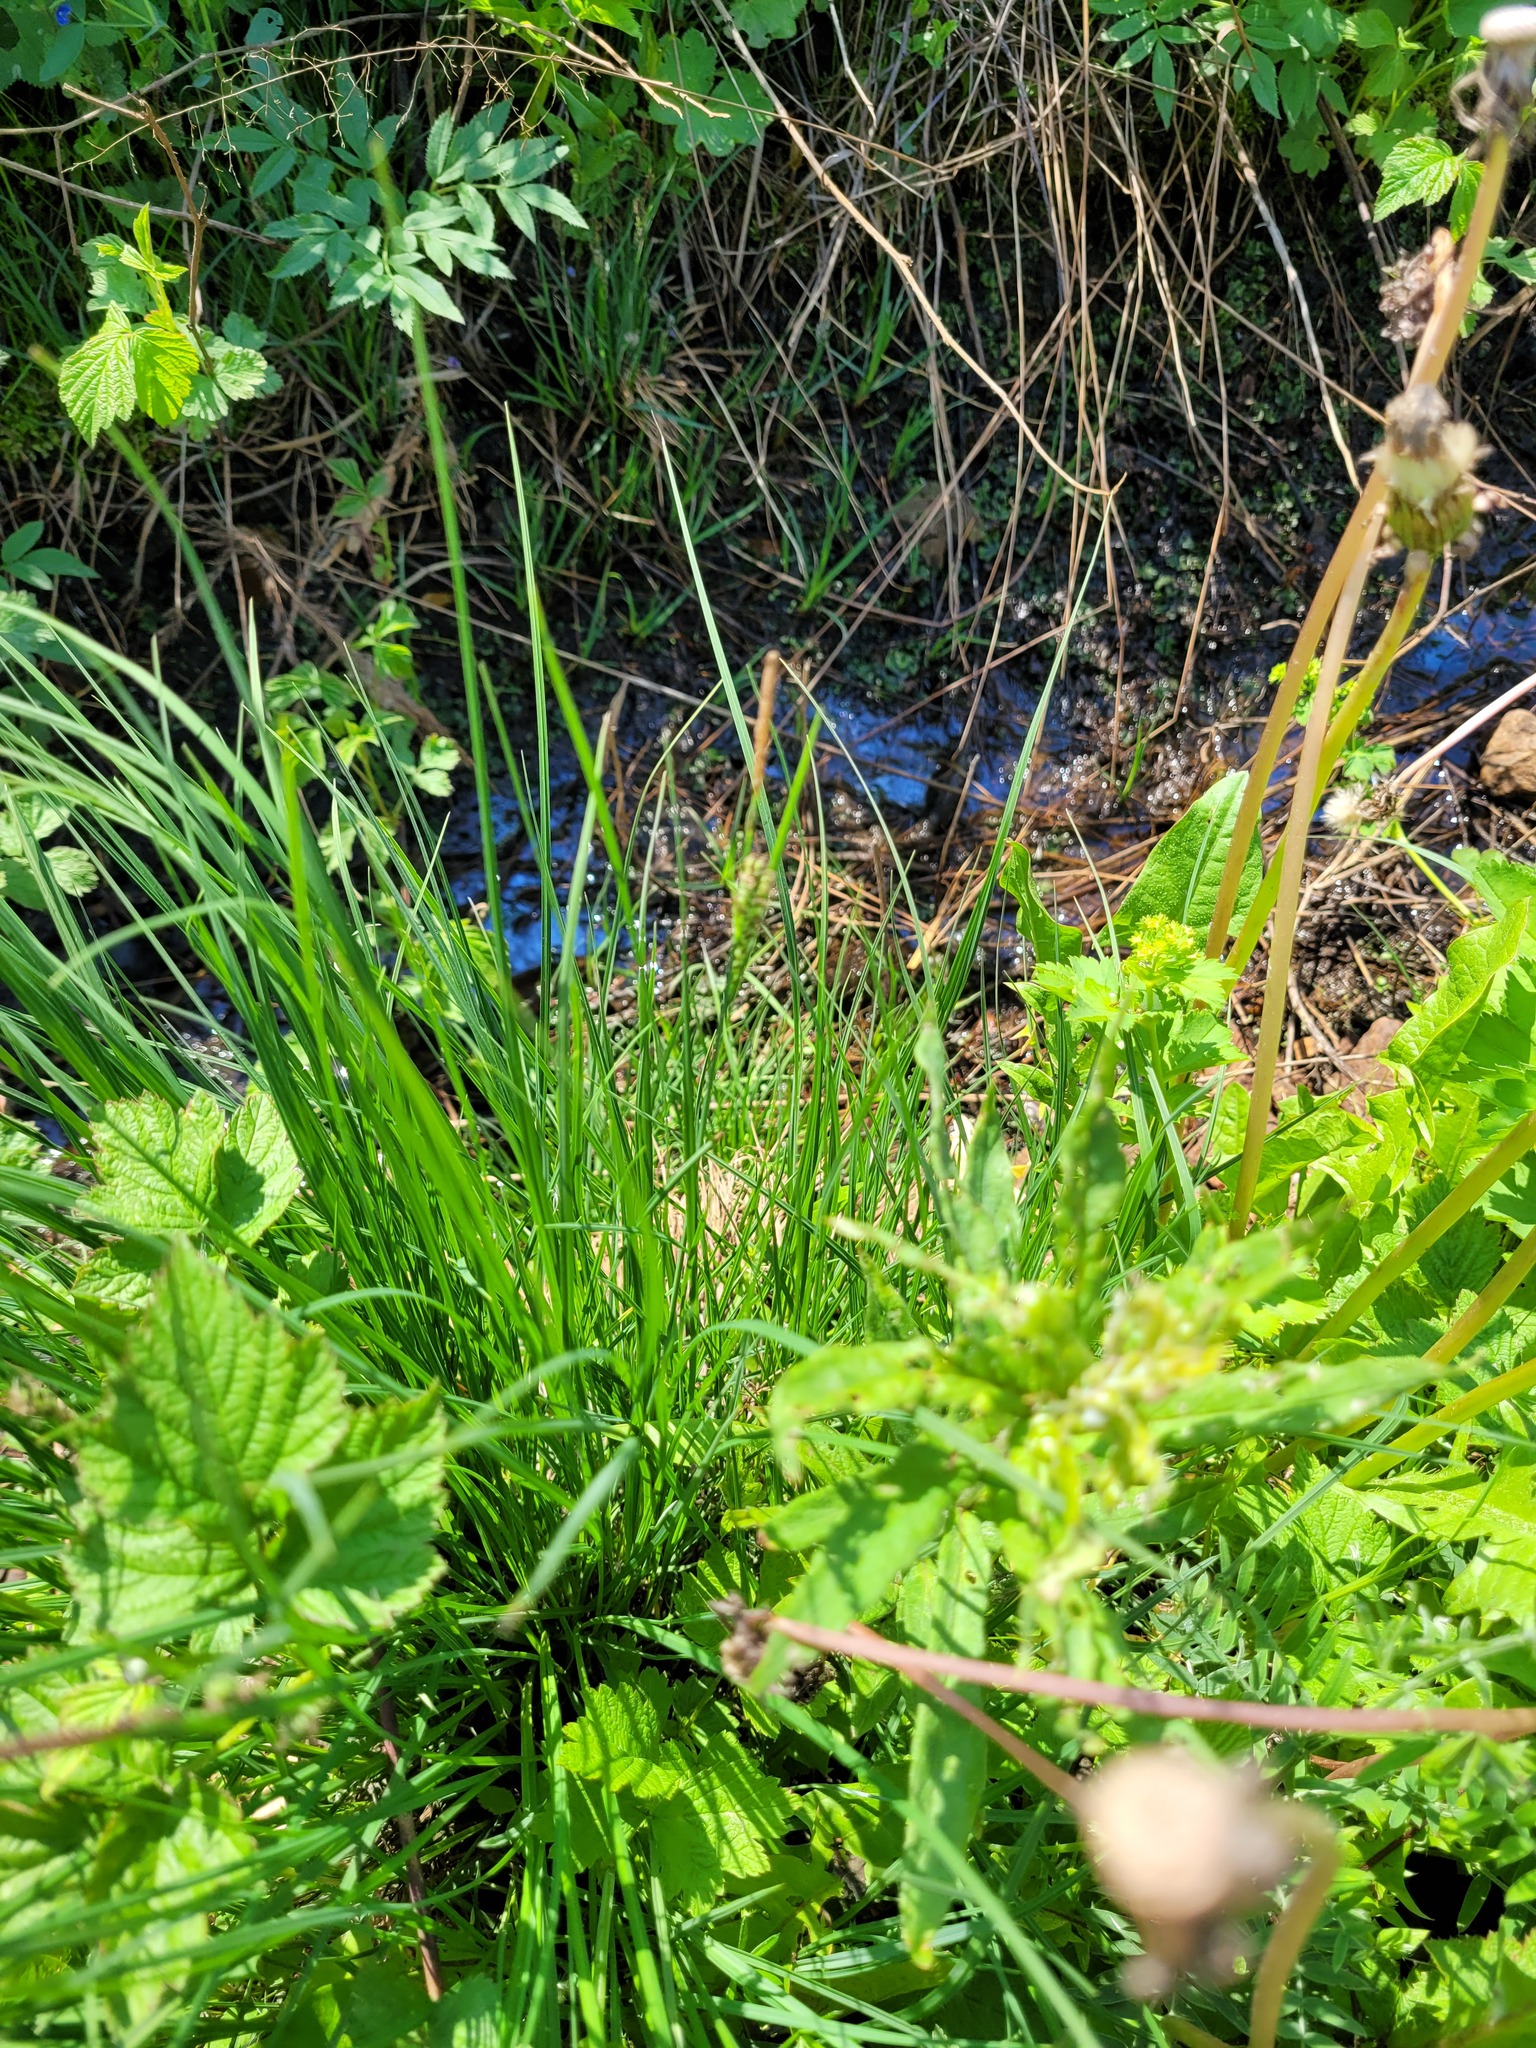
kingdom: Plantae
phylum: Tracheophyta
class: Liliopsida
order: Poales
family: Cyperaceae
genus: Carex
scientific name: Carex nigra
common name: Common sedge
